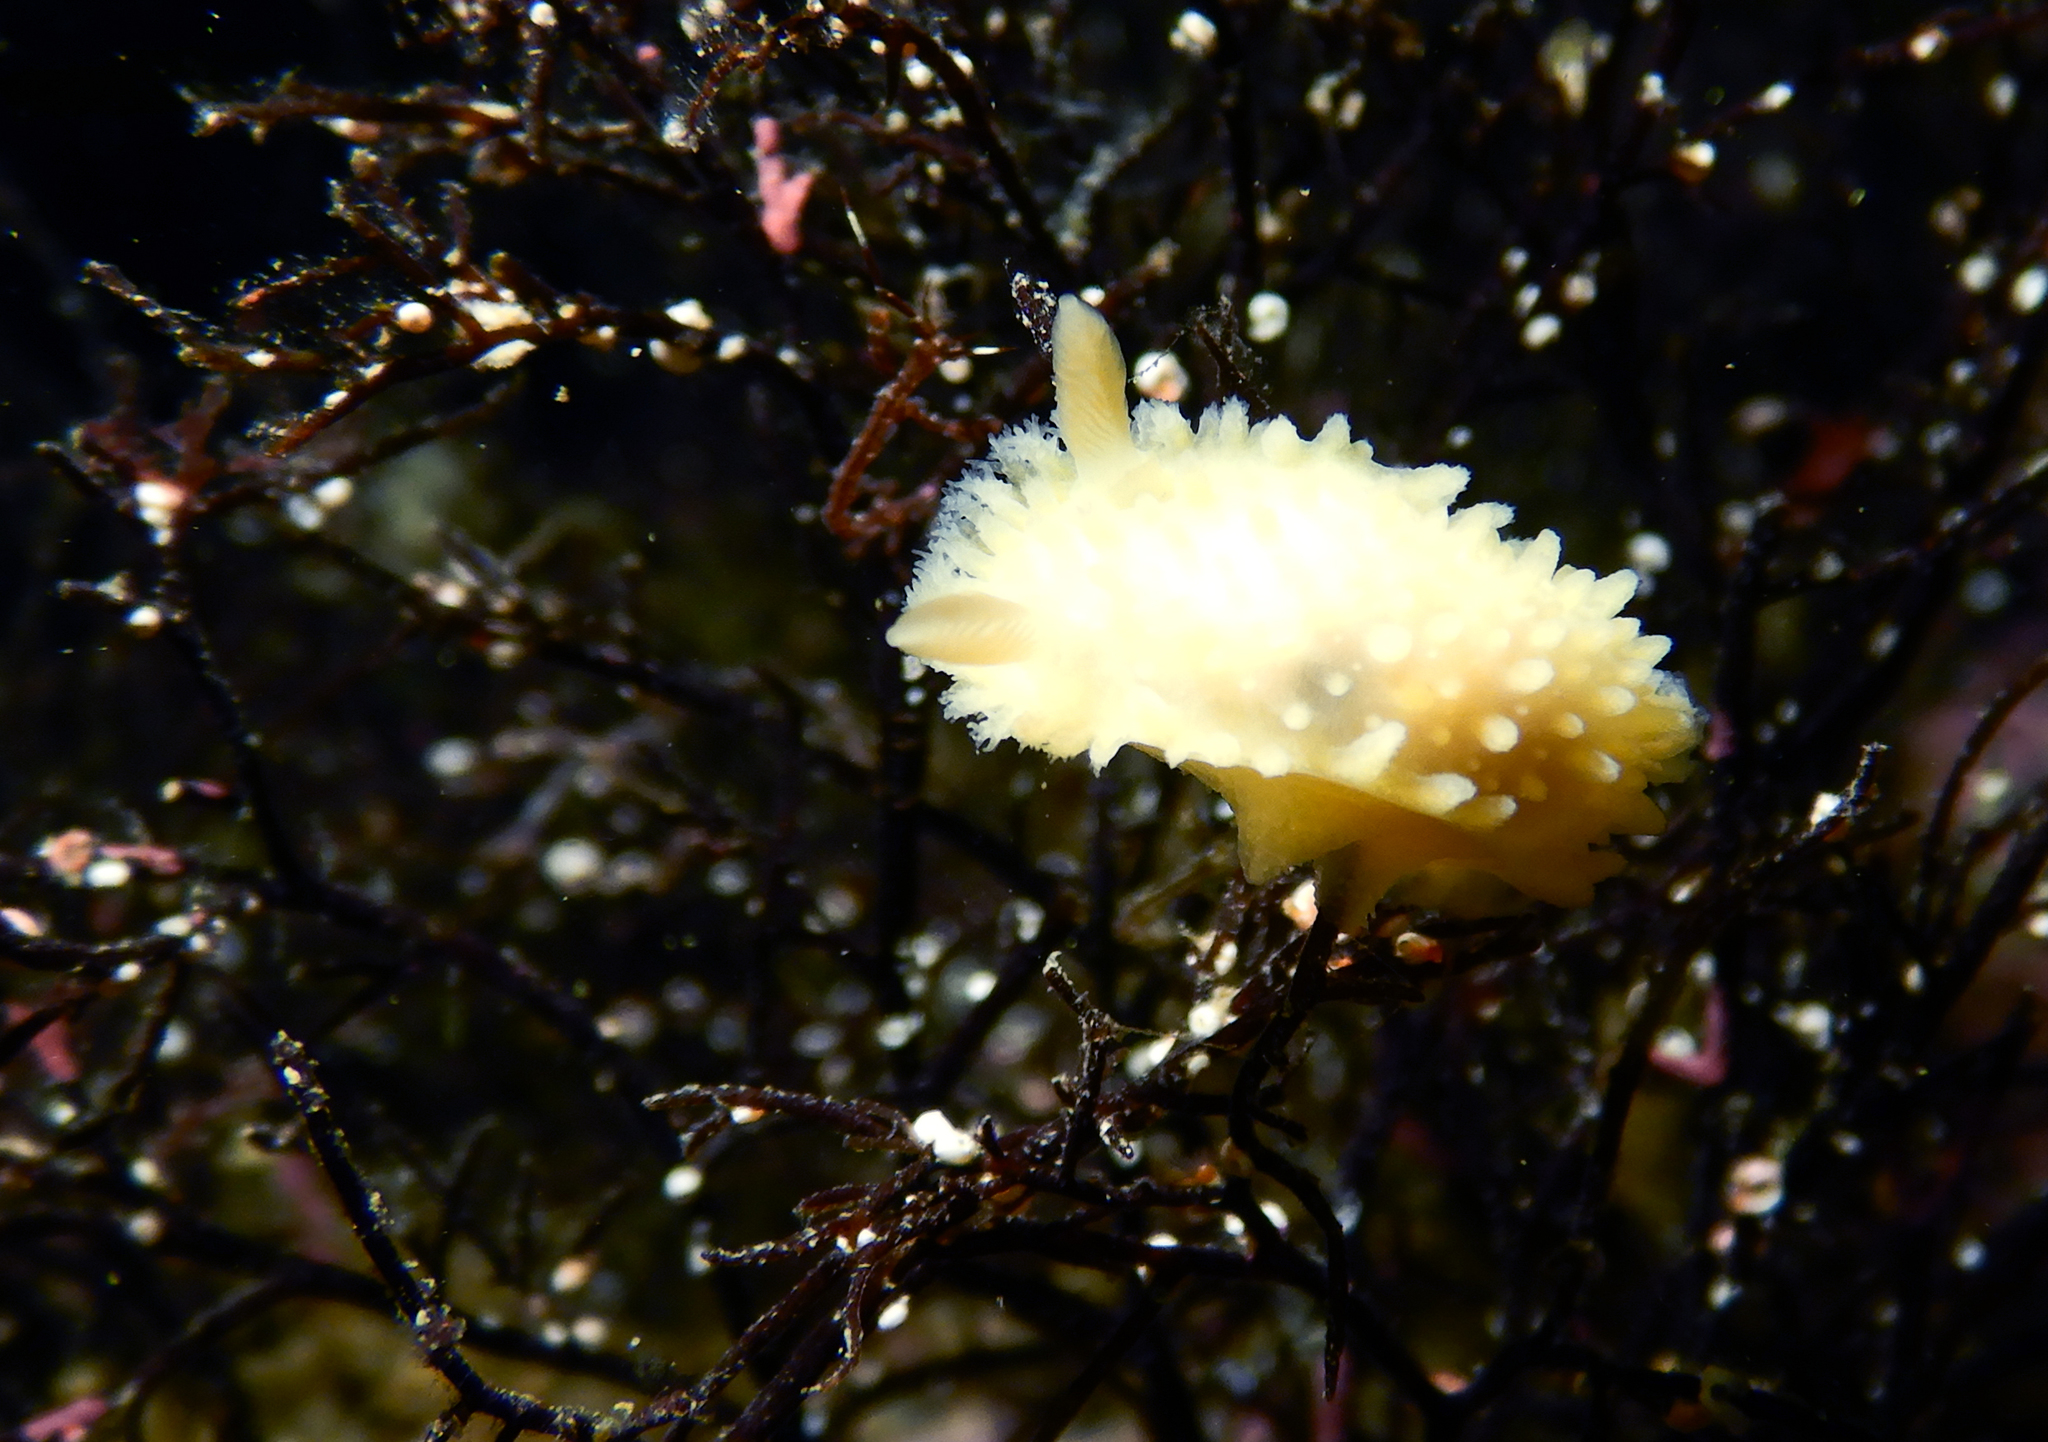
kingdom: Animalia
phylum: Mollusca
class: Gastropoda
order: Nudibranchia
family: Polyceridae
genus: Holoplocamus
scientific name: Holoplocamus papposus
